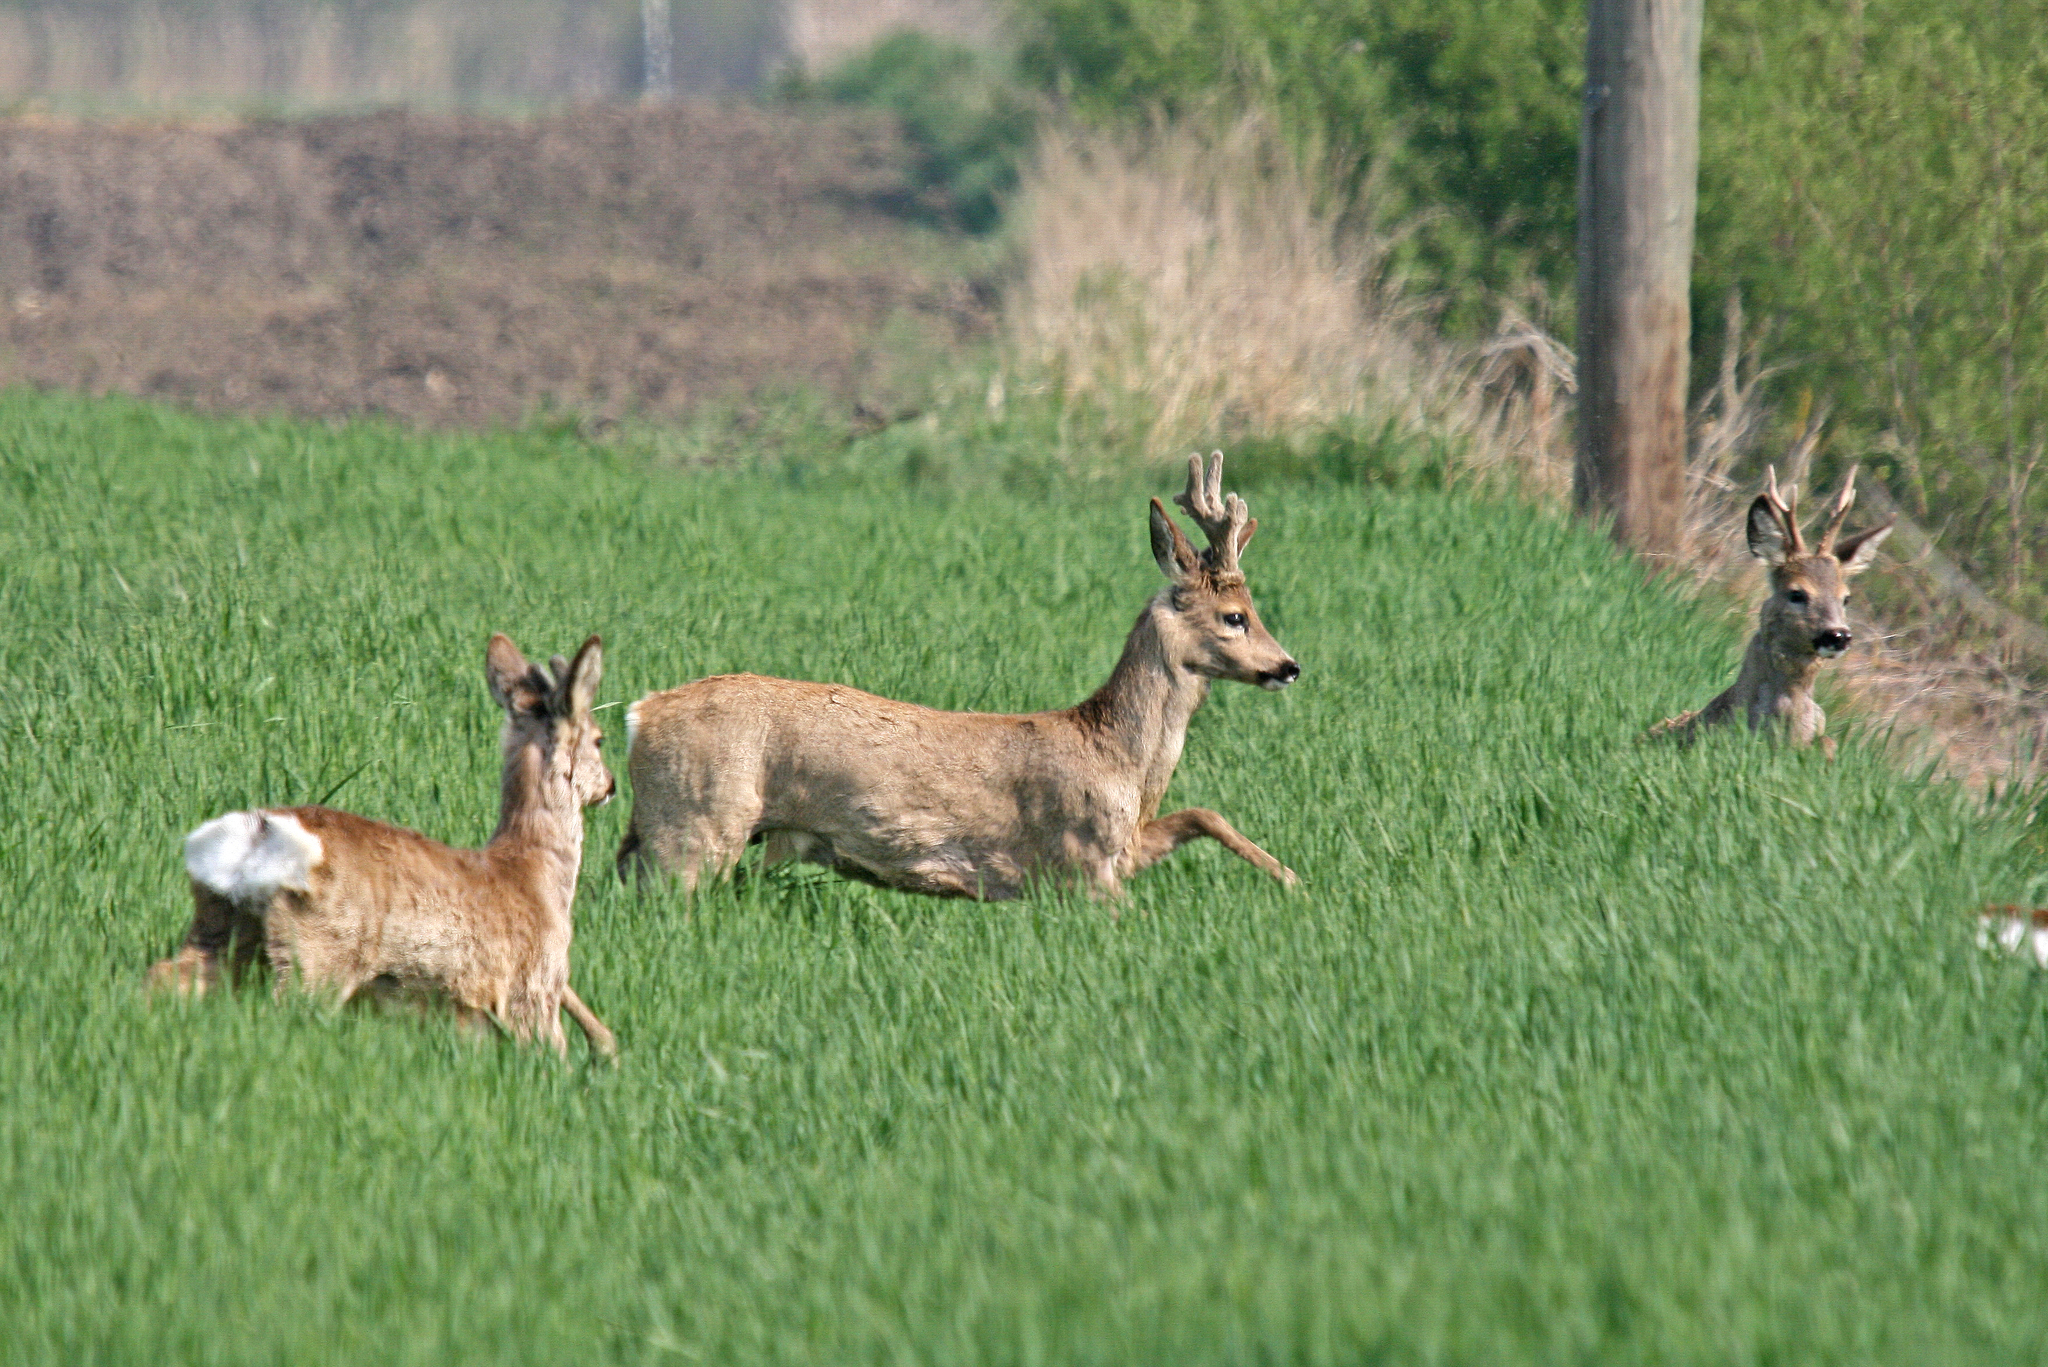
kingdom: Animalia
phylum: Chordata
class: Mammalia
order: Artiodactyla
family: Cervidae
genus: Capreolus
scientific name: Capreolus capreolus
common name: Western roe deer
